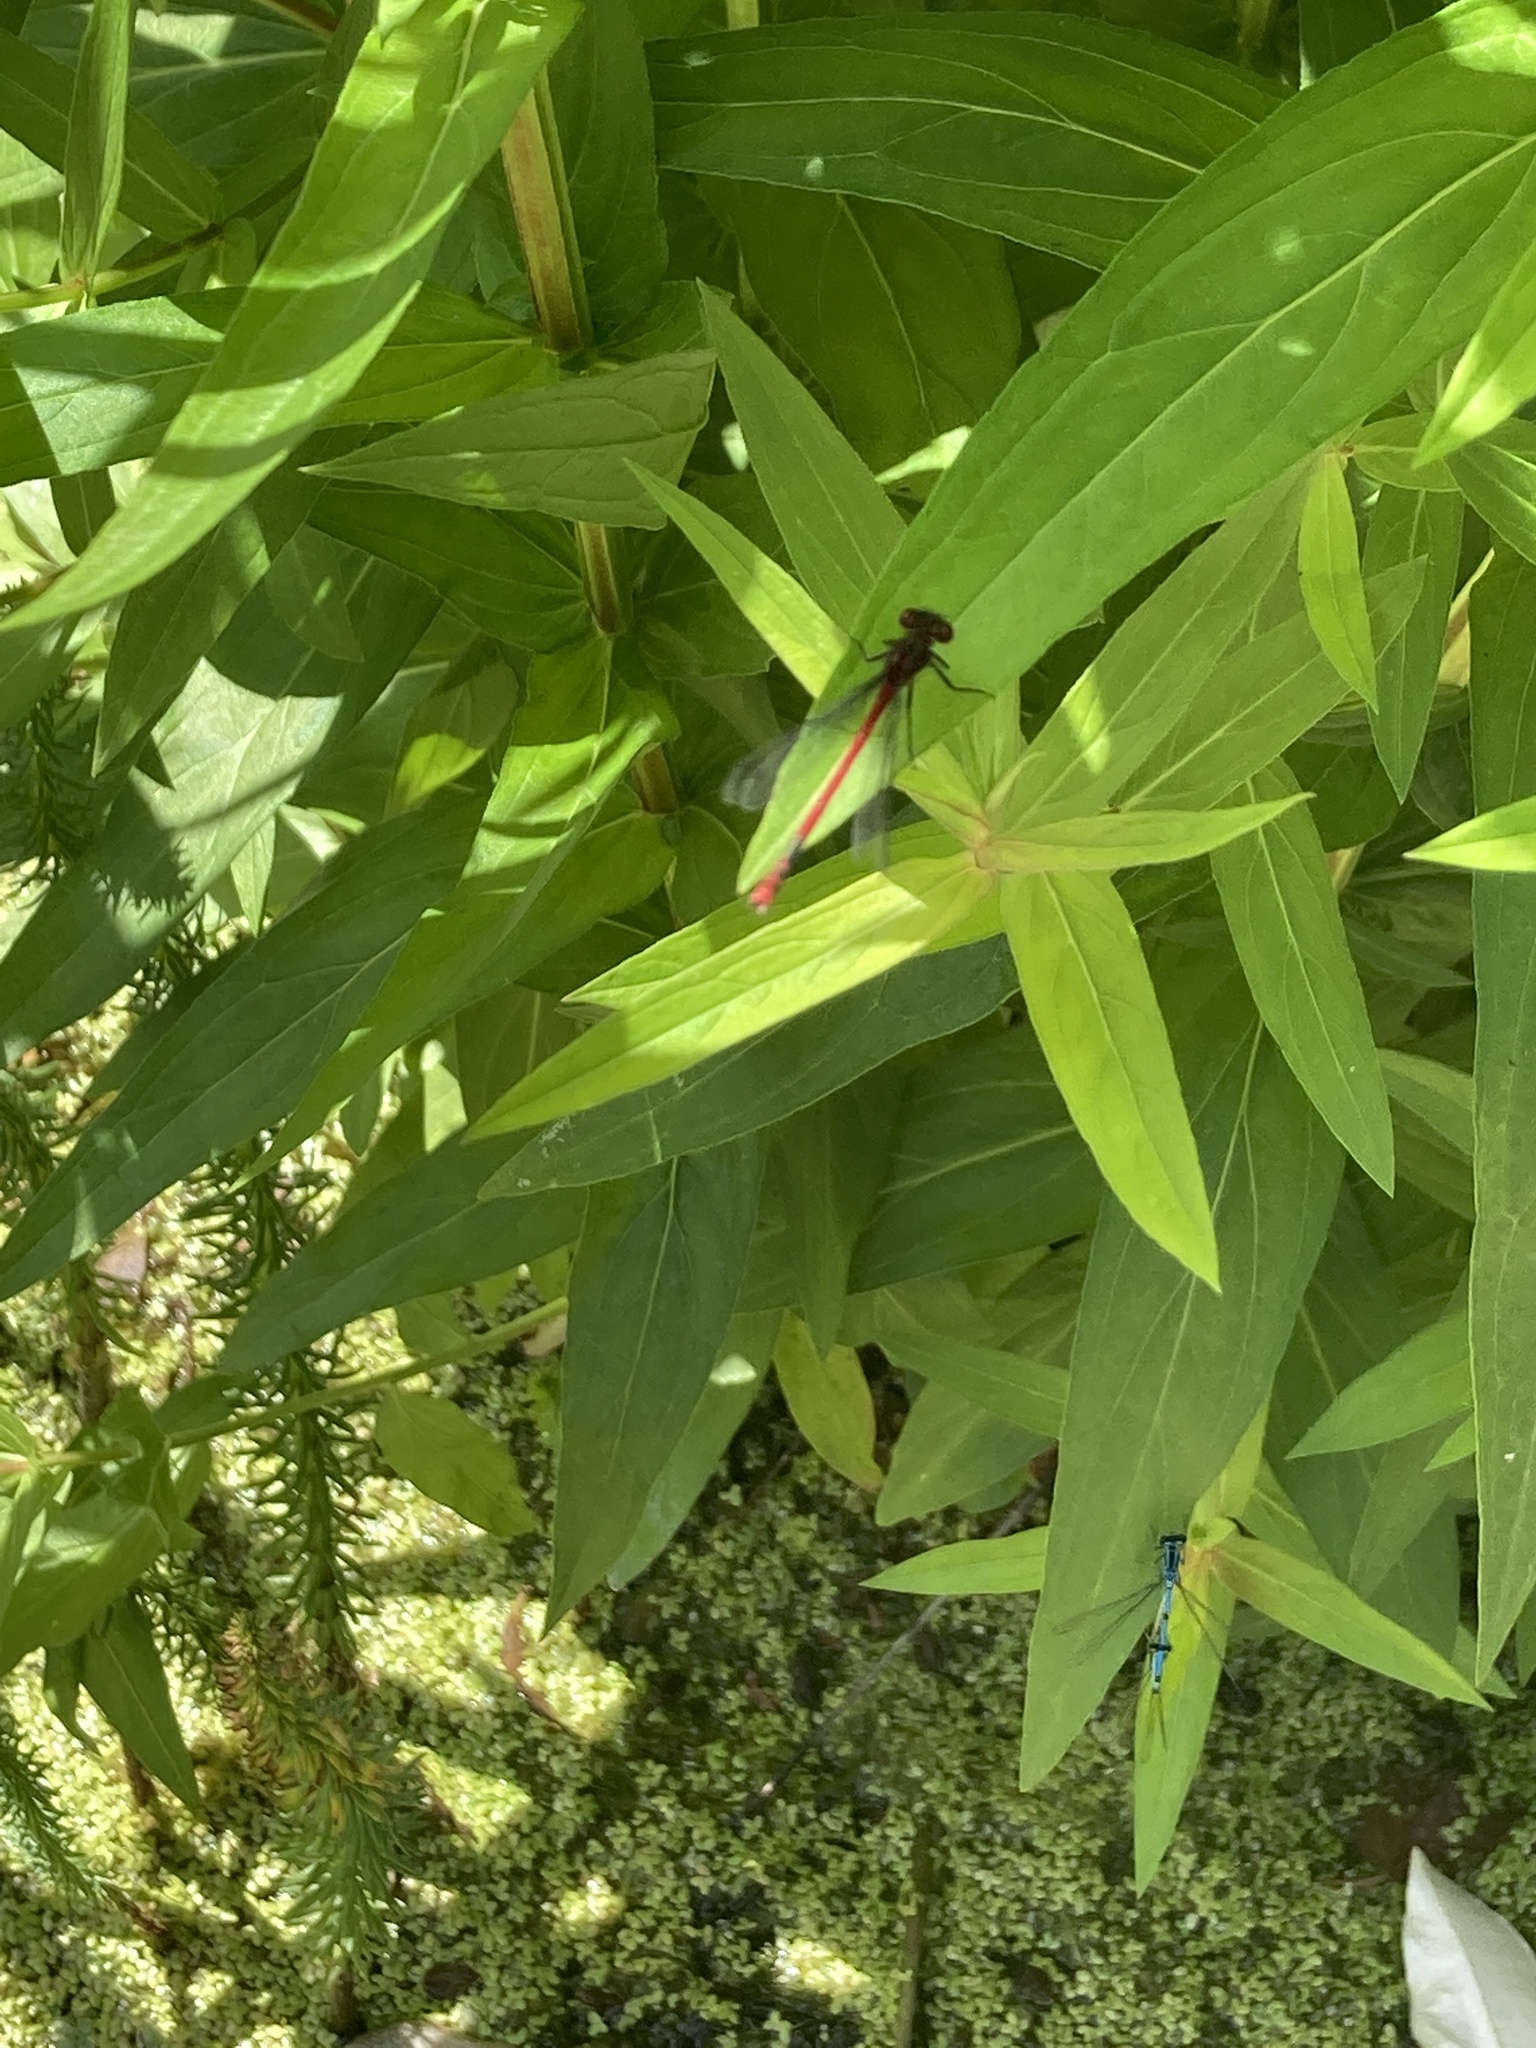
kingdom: Animalia
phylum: Arthropoda
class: Insecta
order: Odonata
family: Coenagrionidae
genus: Pyrrhosoma
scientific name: Pyrrhosoma nymphula
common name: Large red damsel
